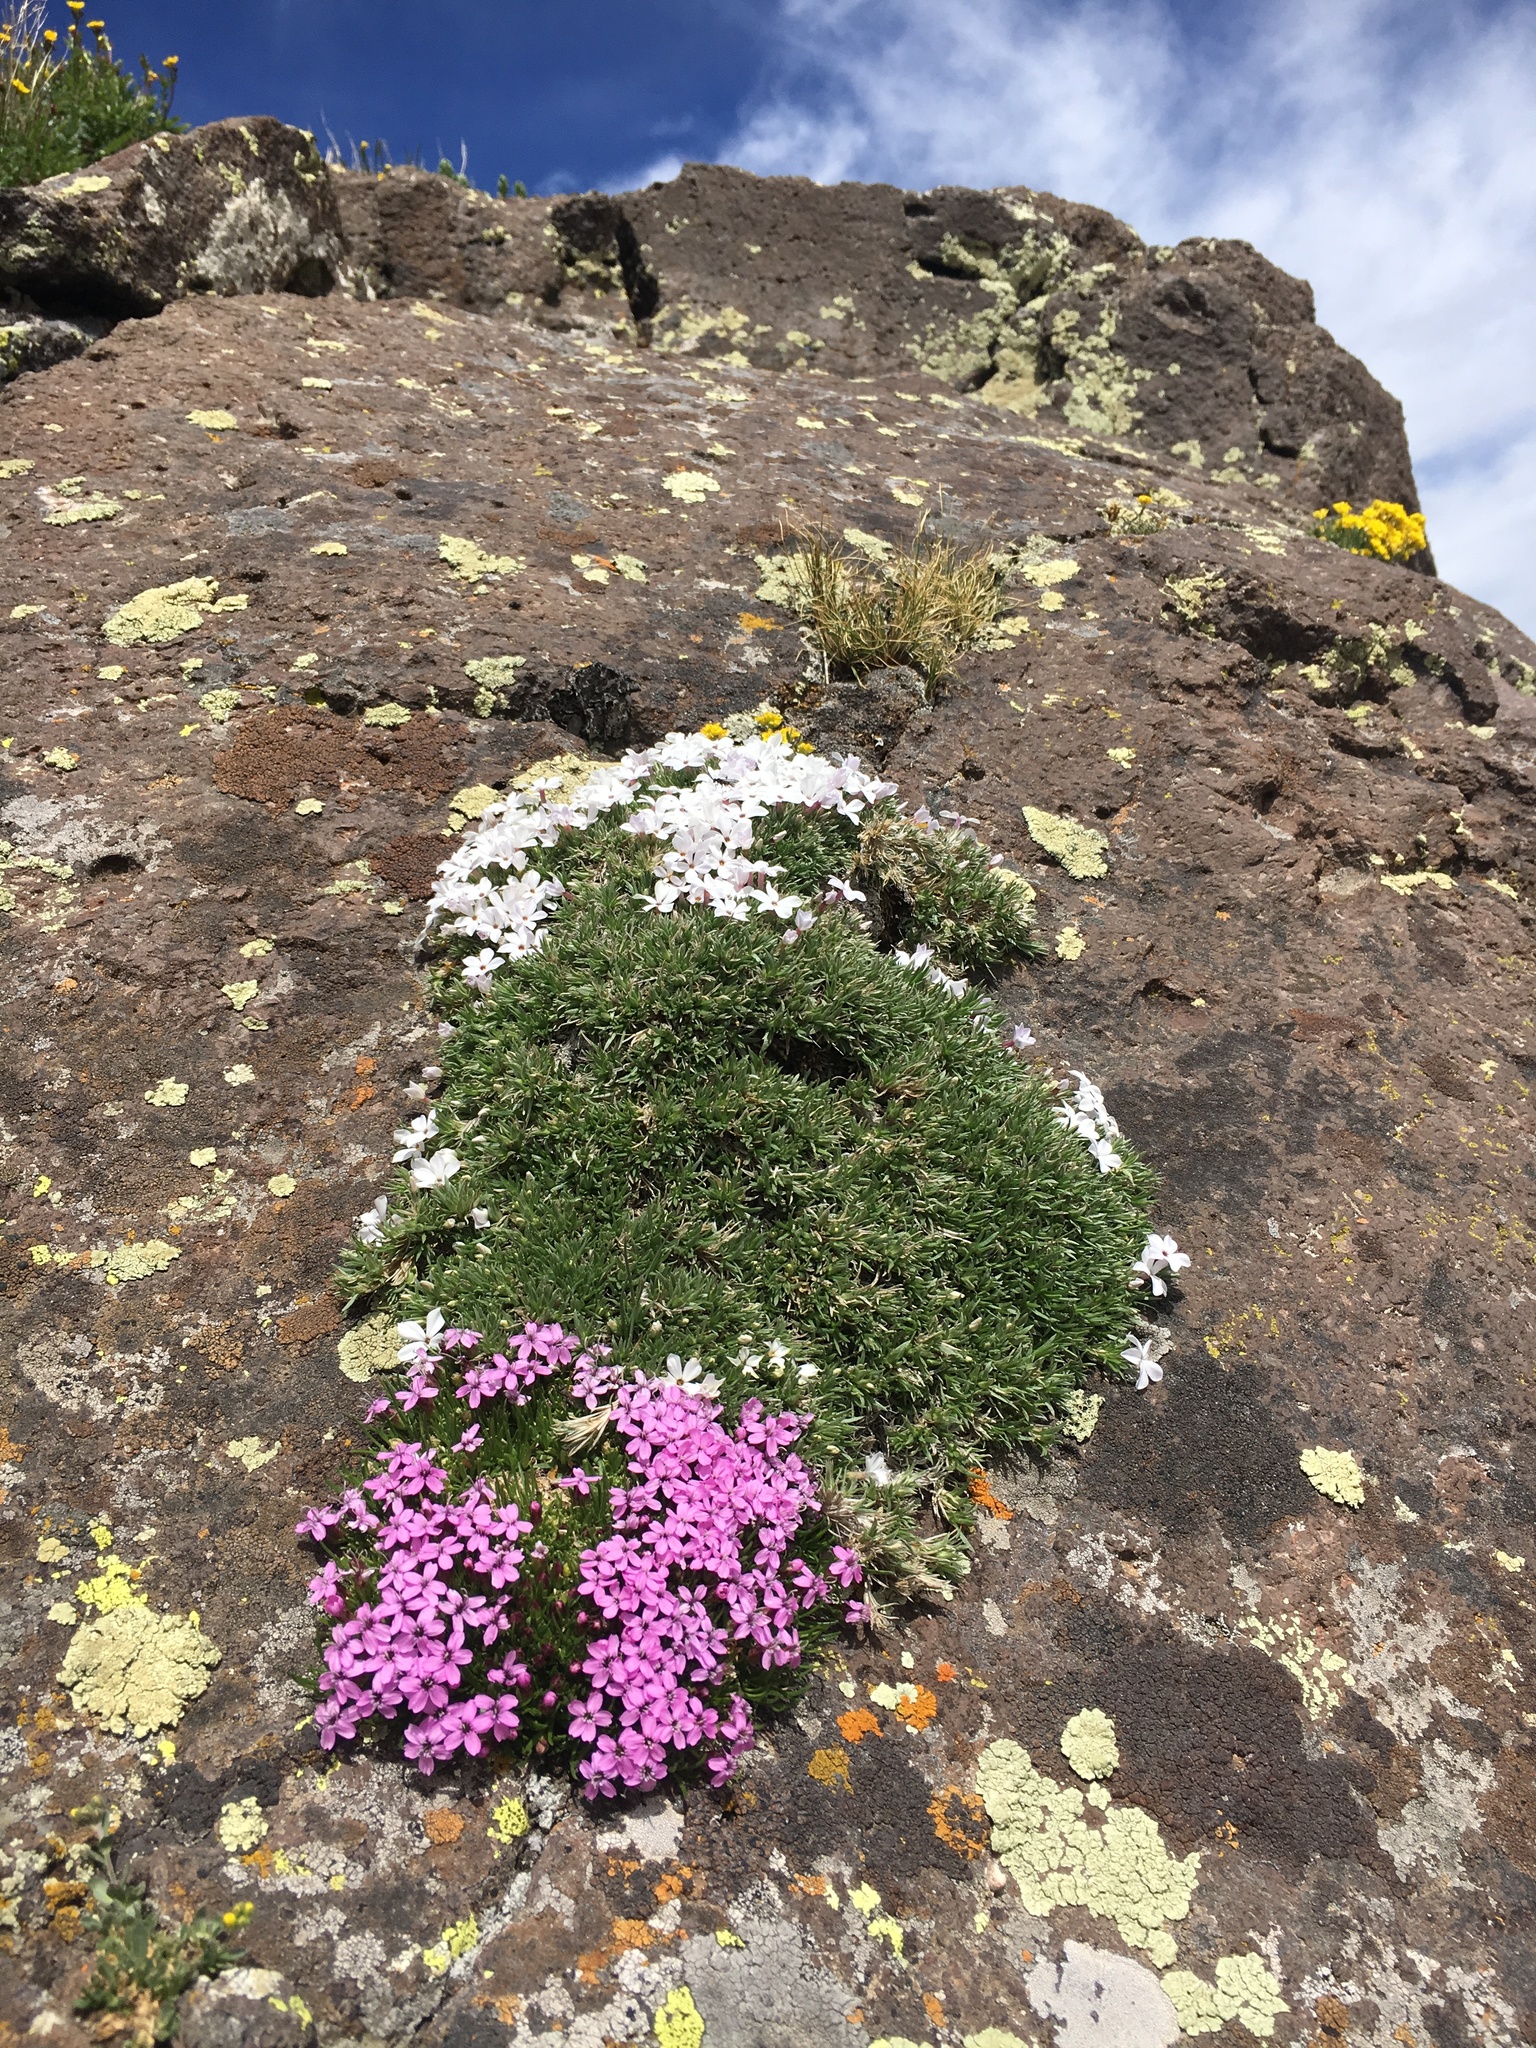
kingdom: Plantae
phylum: Tracheophyta
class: Magnoliopsida
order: Caryophyllales
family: Caryophyllaceae
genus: Silene
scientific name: Silene acaulis
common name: Moss campion
